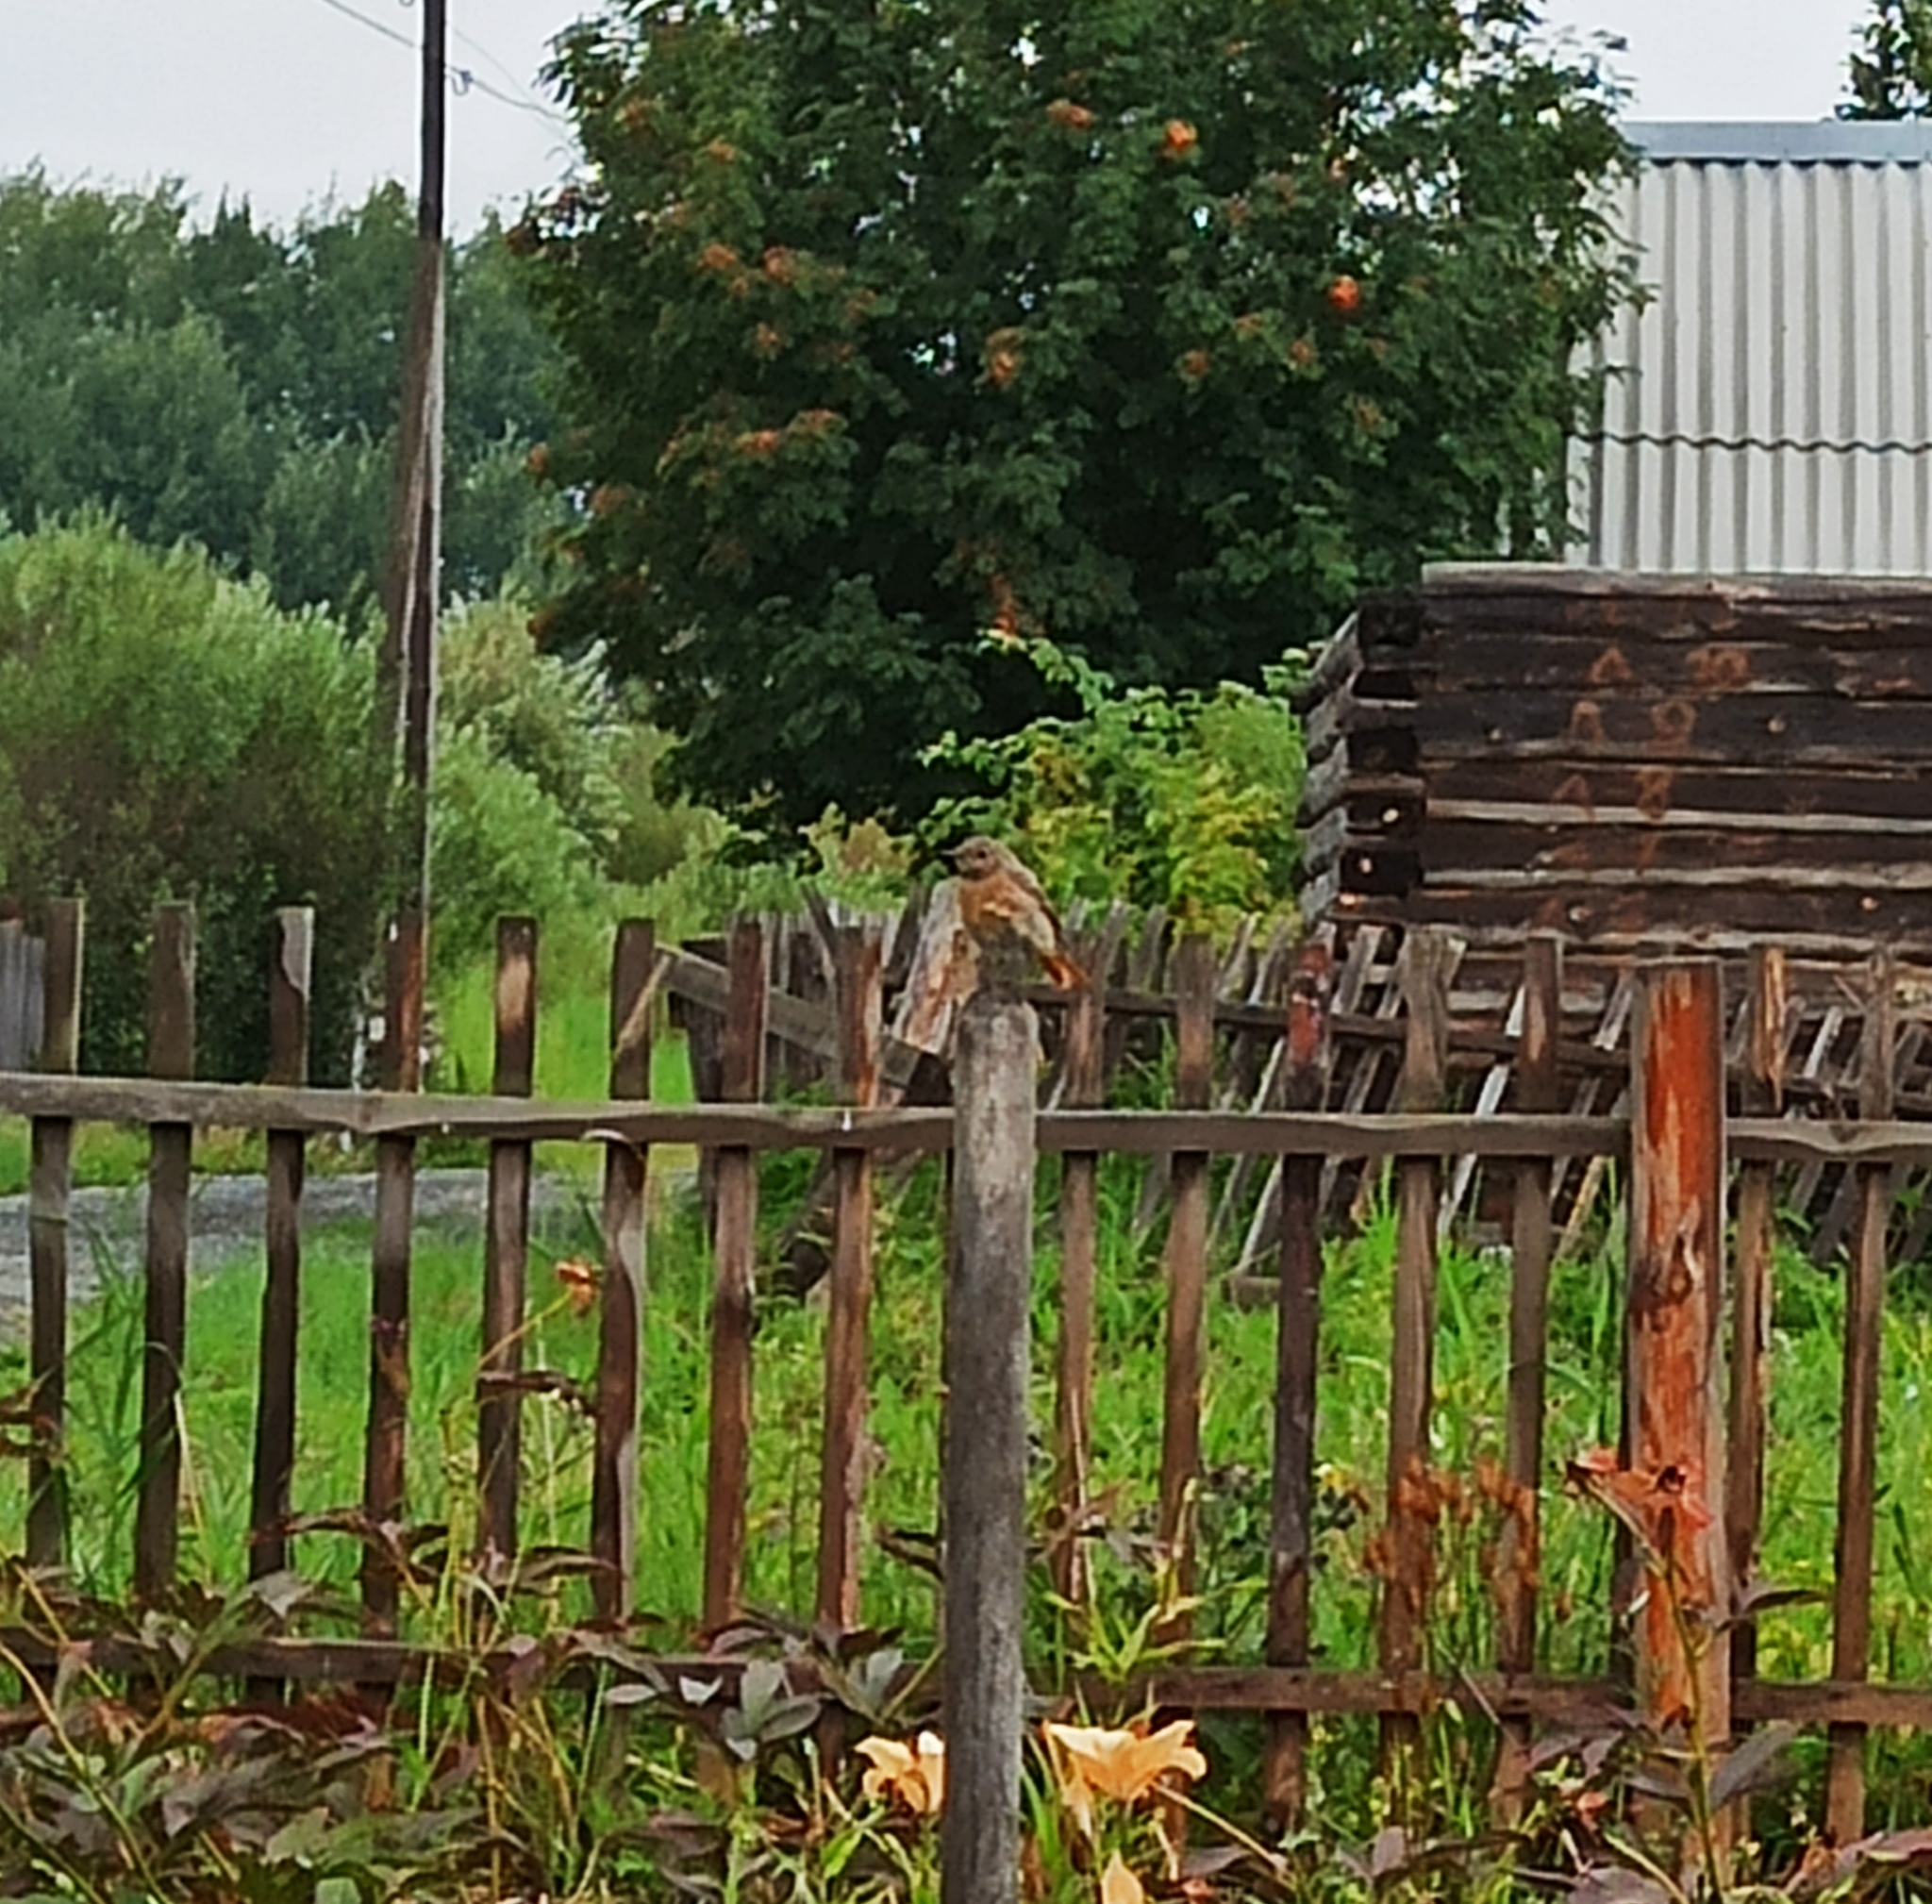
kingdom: Animalia
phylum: Chordata
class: Aves
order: Passeriformes
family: Muscicapidae
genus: Phoenicurus
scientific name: Phoenicurus phoenicurus
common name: Common redstart
